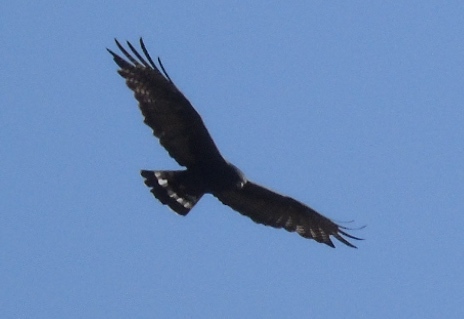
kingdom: Animalia
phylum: Chordata
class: Aves
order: Accipitriformes
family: Accipitridae
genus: Buteo
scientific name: Buteo albonotatus
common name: Zone-tailed hawk
